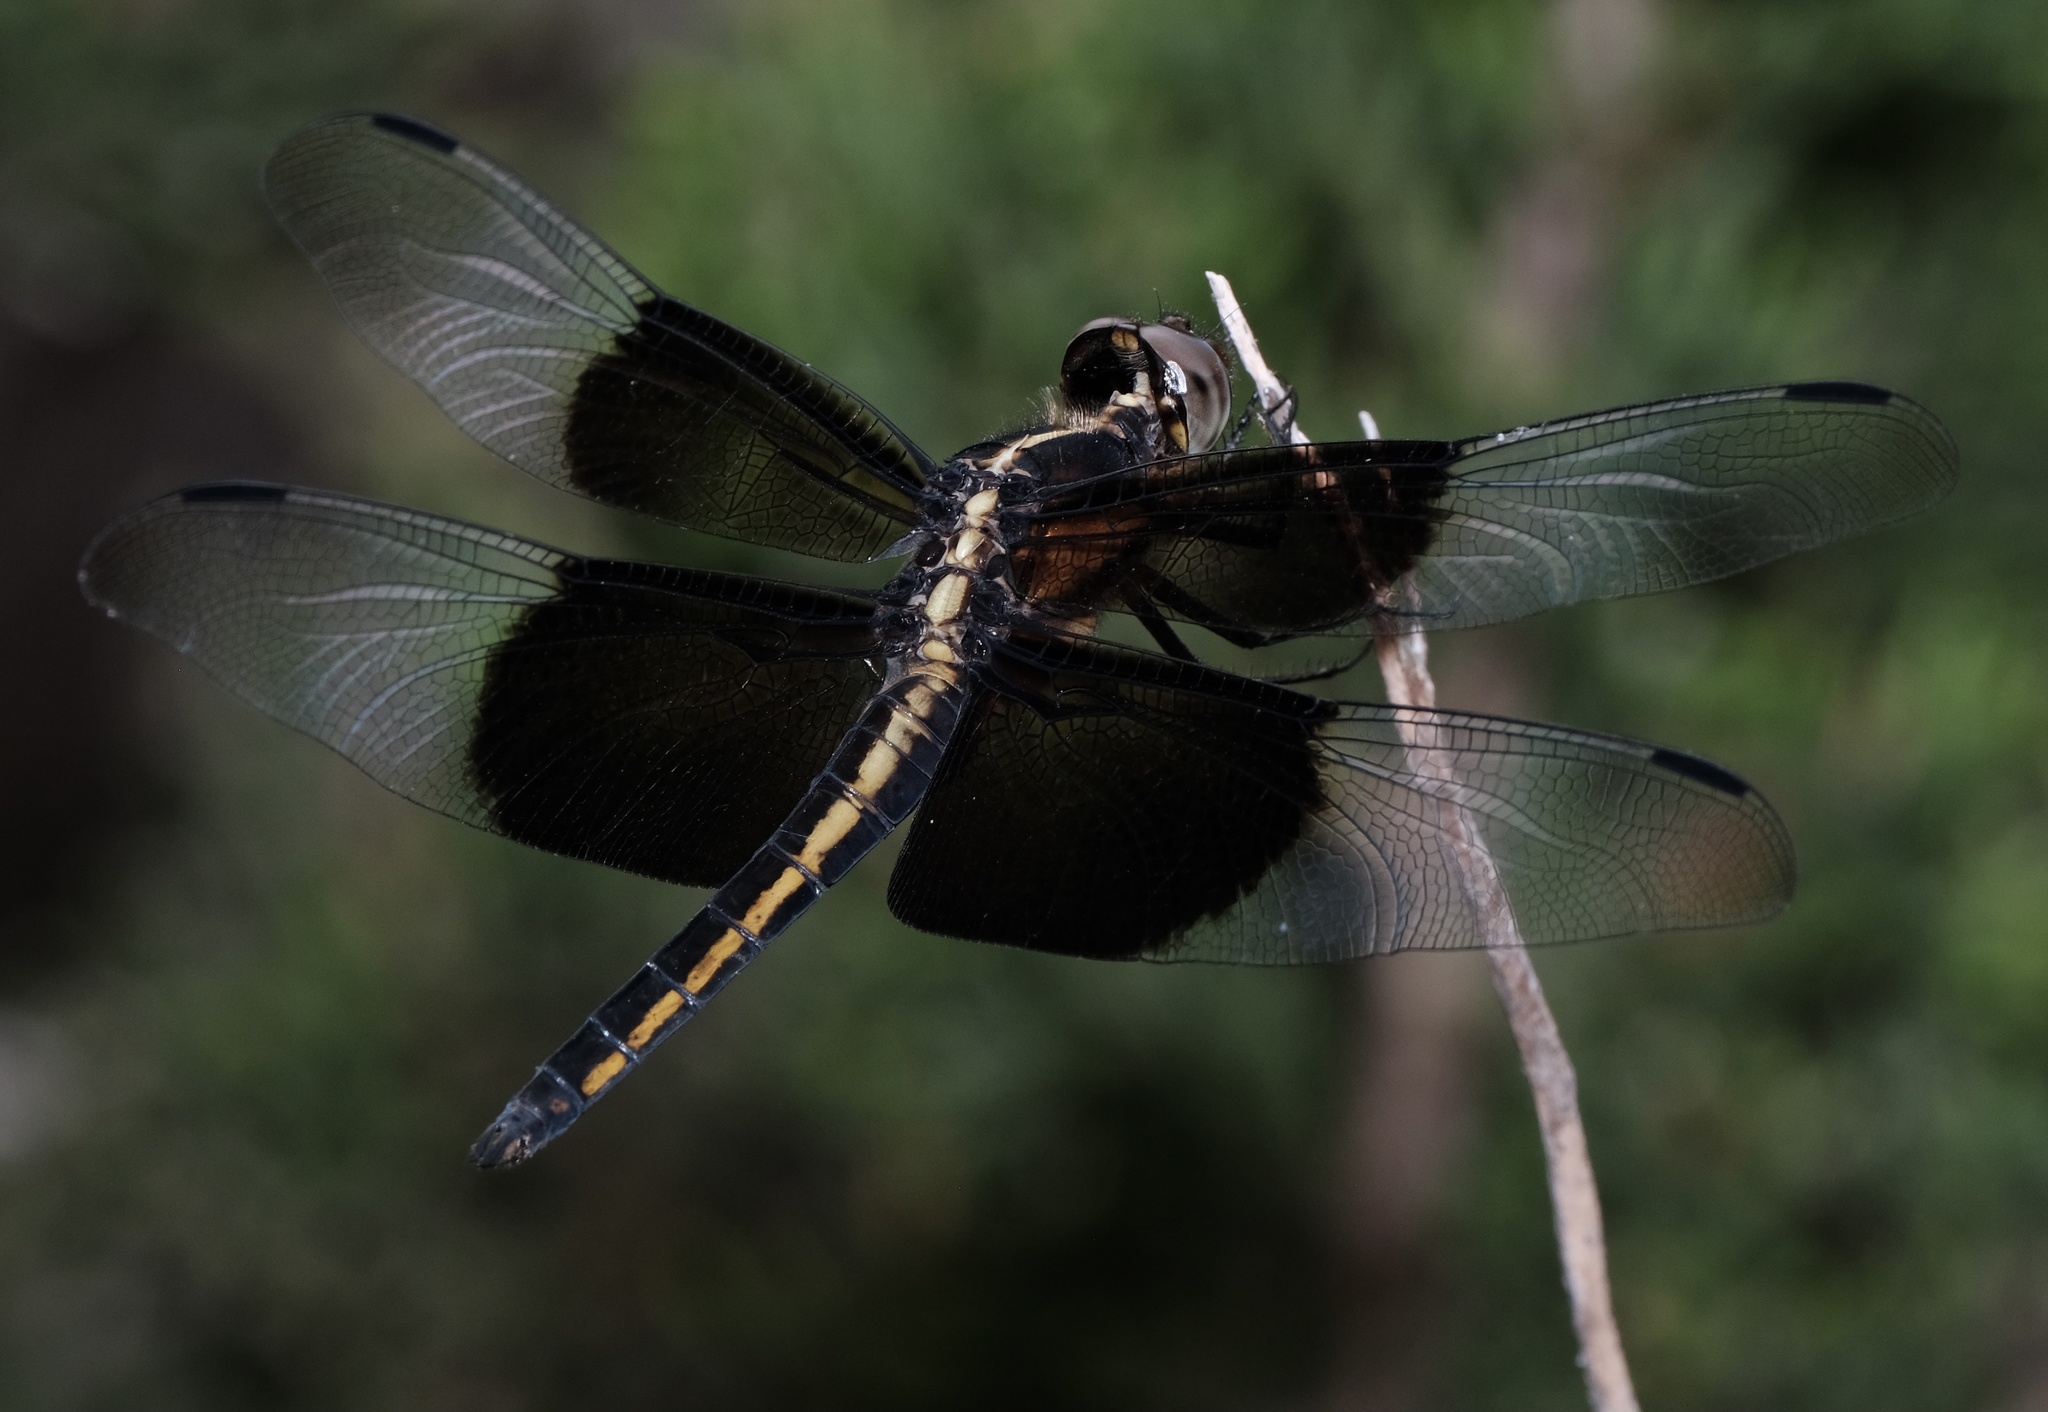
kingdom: Animalia
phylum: Arthropoda
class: Insecta
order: Odonata
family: Libellulidae
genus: Libellula
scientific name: Libellula luctuosa
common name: Widow skimmer
